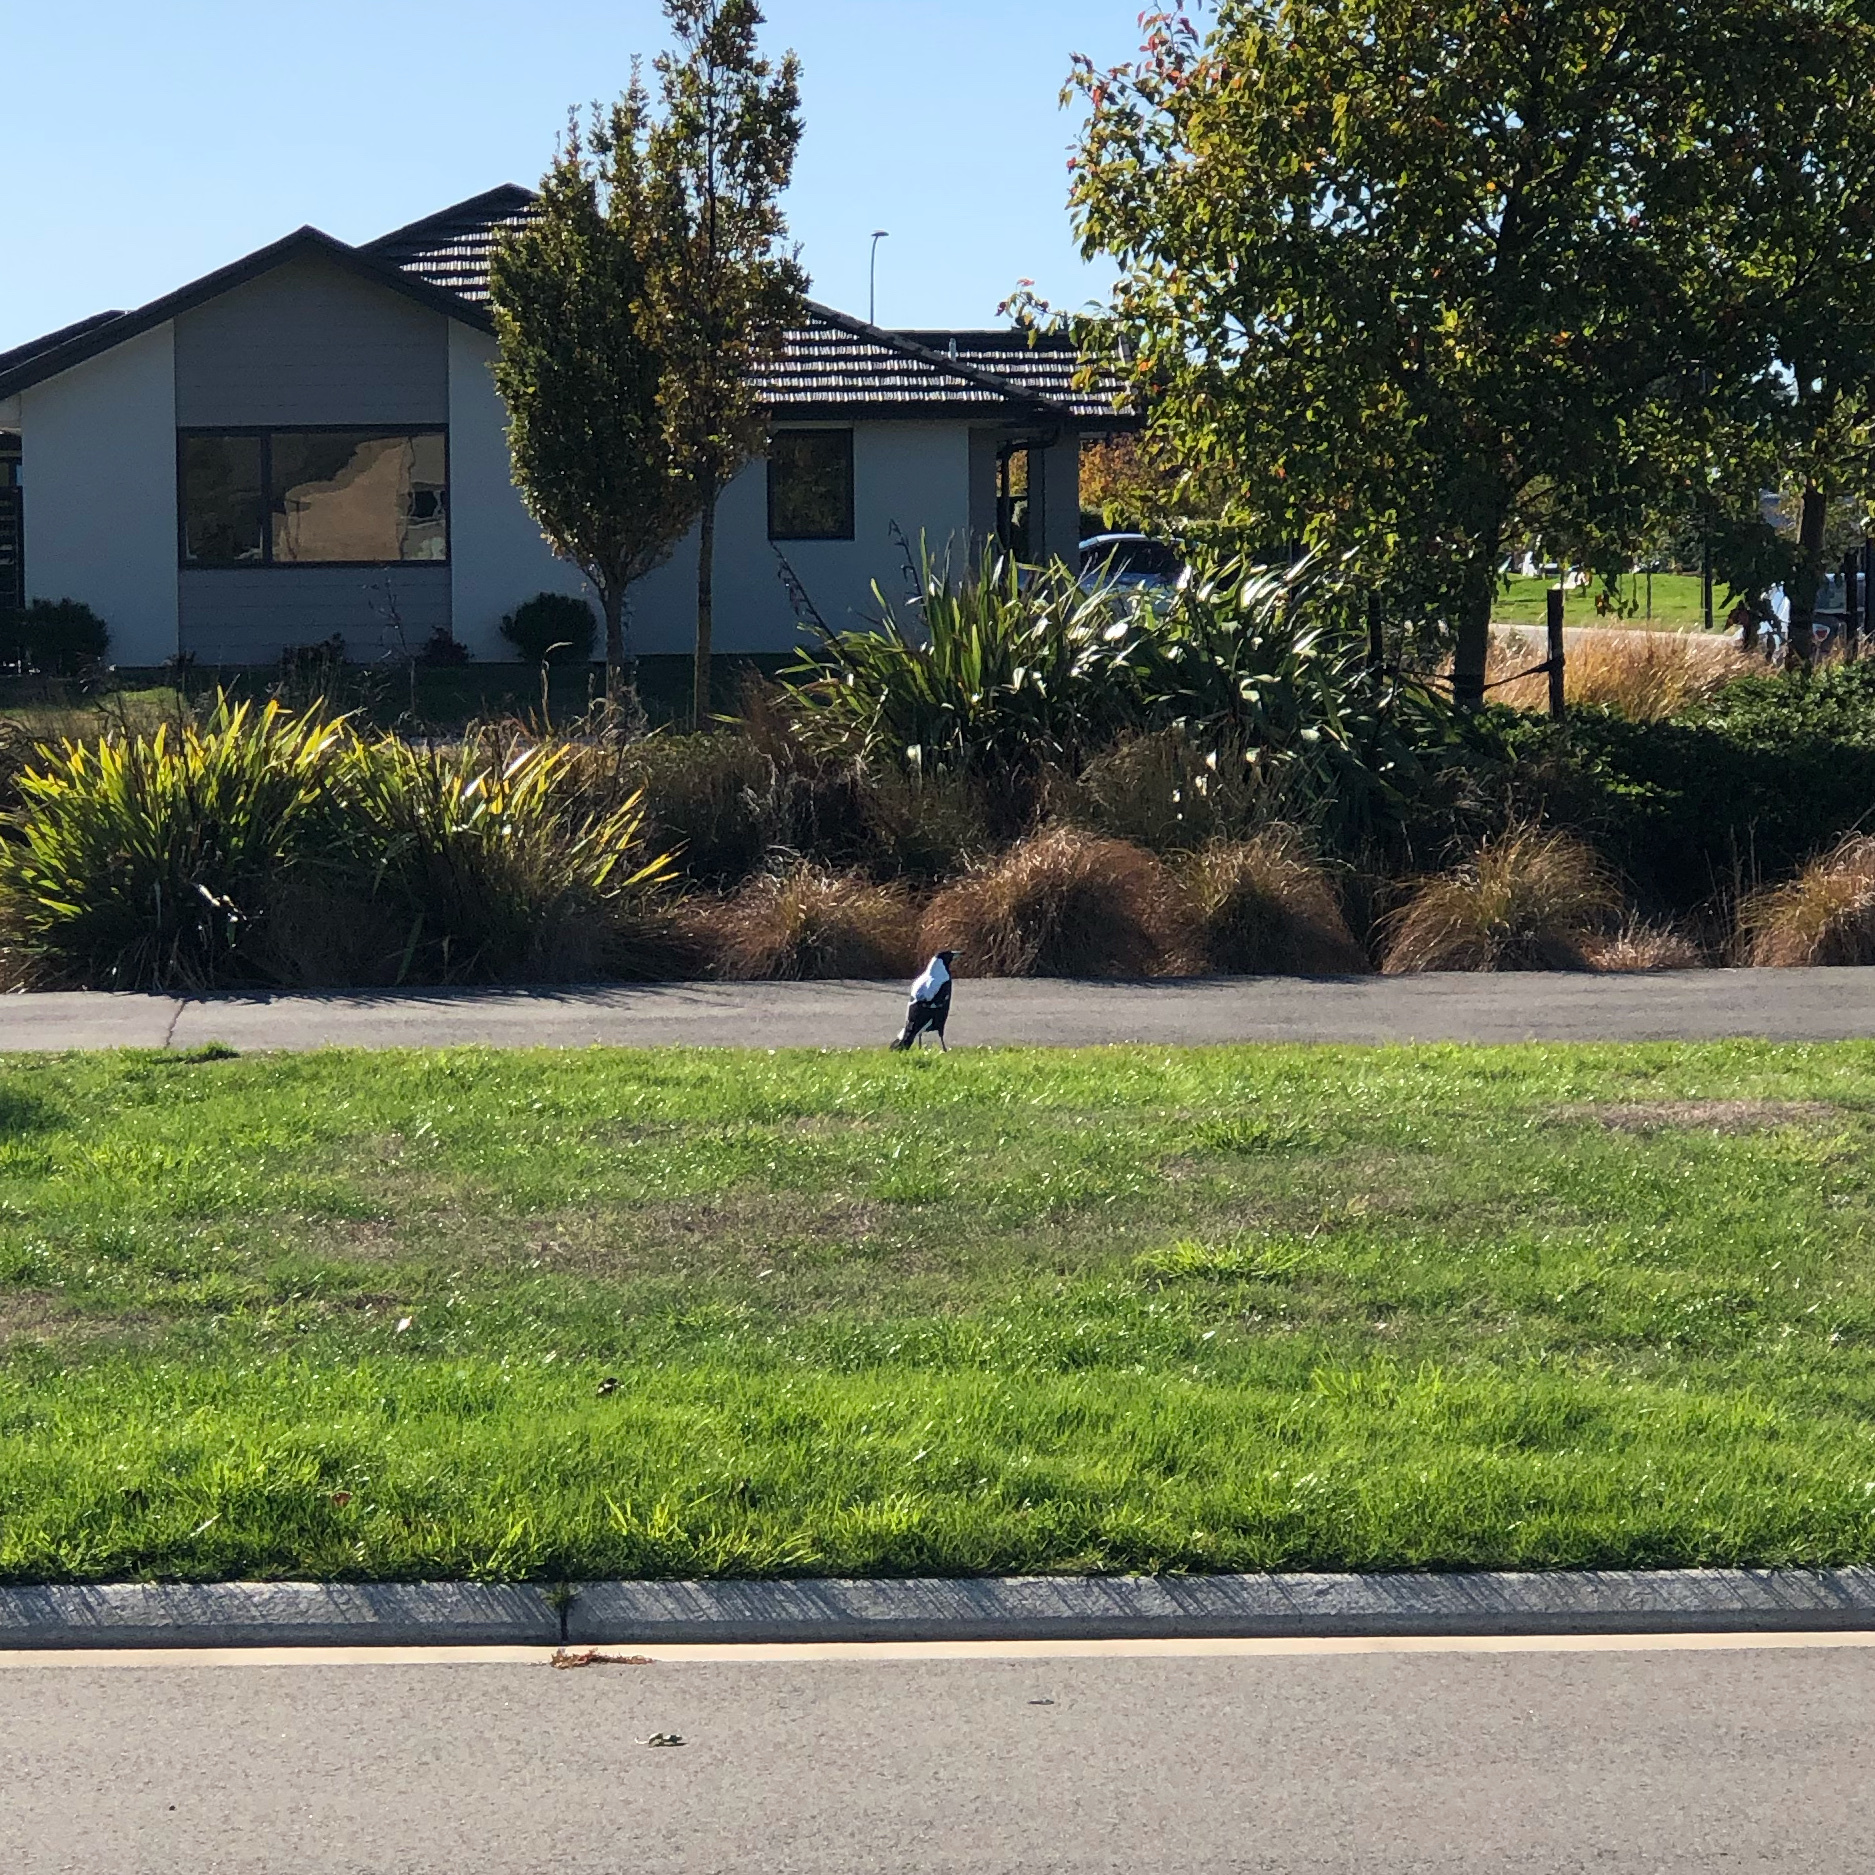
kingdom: Animalia
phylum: Chordata
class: Aves
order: Passeriformes
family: Cracticidae
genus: Gymnorhina
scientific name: Gymnorhina tibicen
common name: Australian magpie
